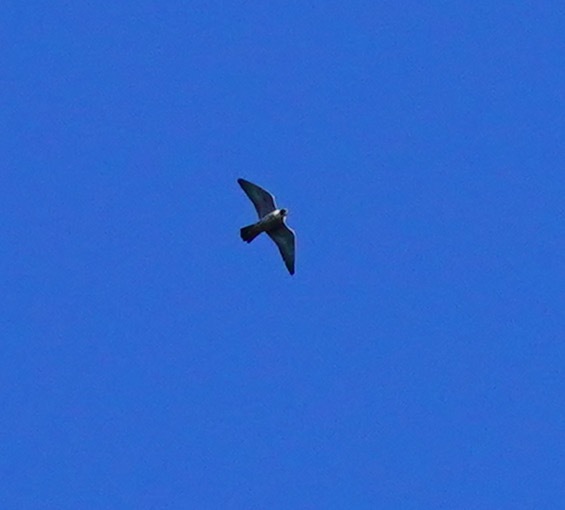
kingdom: Animalia
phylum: Chordata
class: Aves
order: Falconiformes
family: Falconidae
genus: Falco
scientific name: Falco peregrinus
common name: Peregrine falcon
